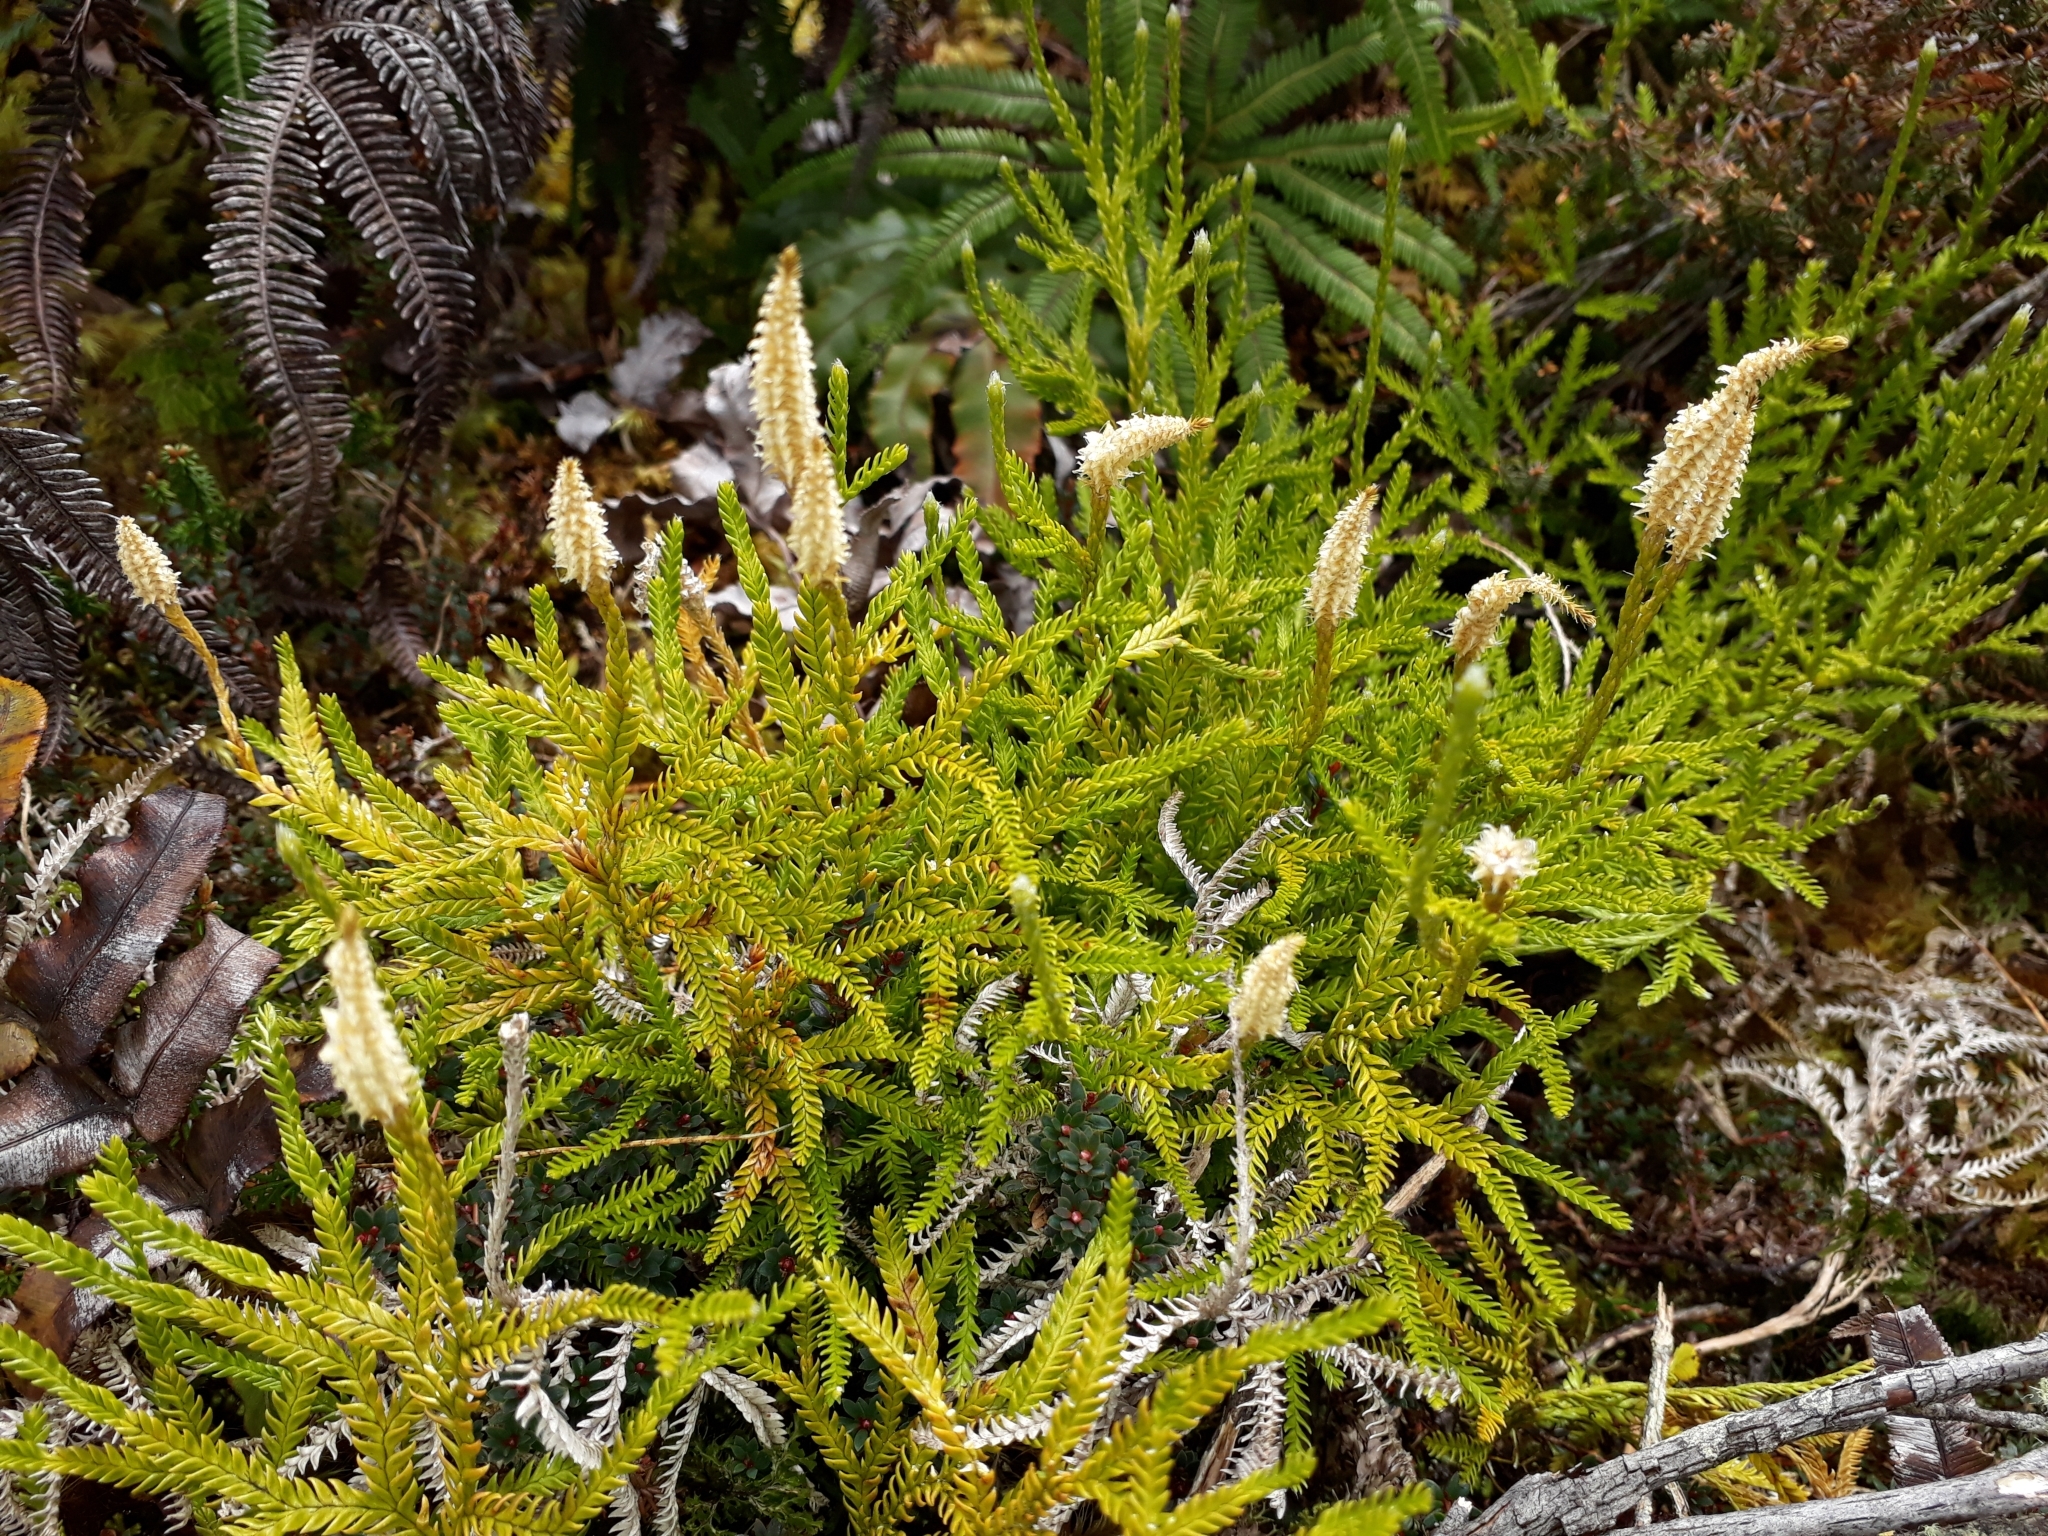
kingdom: Plantae
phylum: Tracheophyta
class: Lycopodiopsida
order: Lycopodiales
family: Lycopodiaceae
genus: Diphasium
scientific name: Diphasium scariosum
